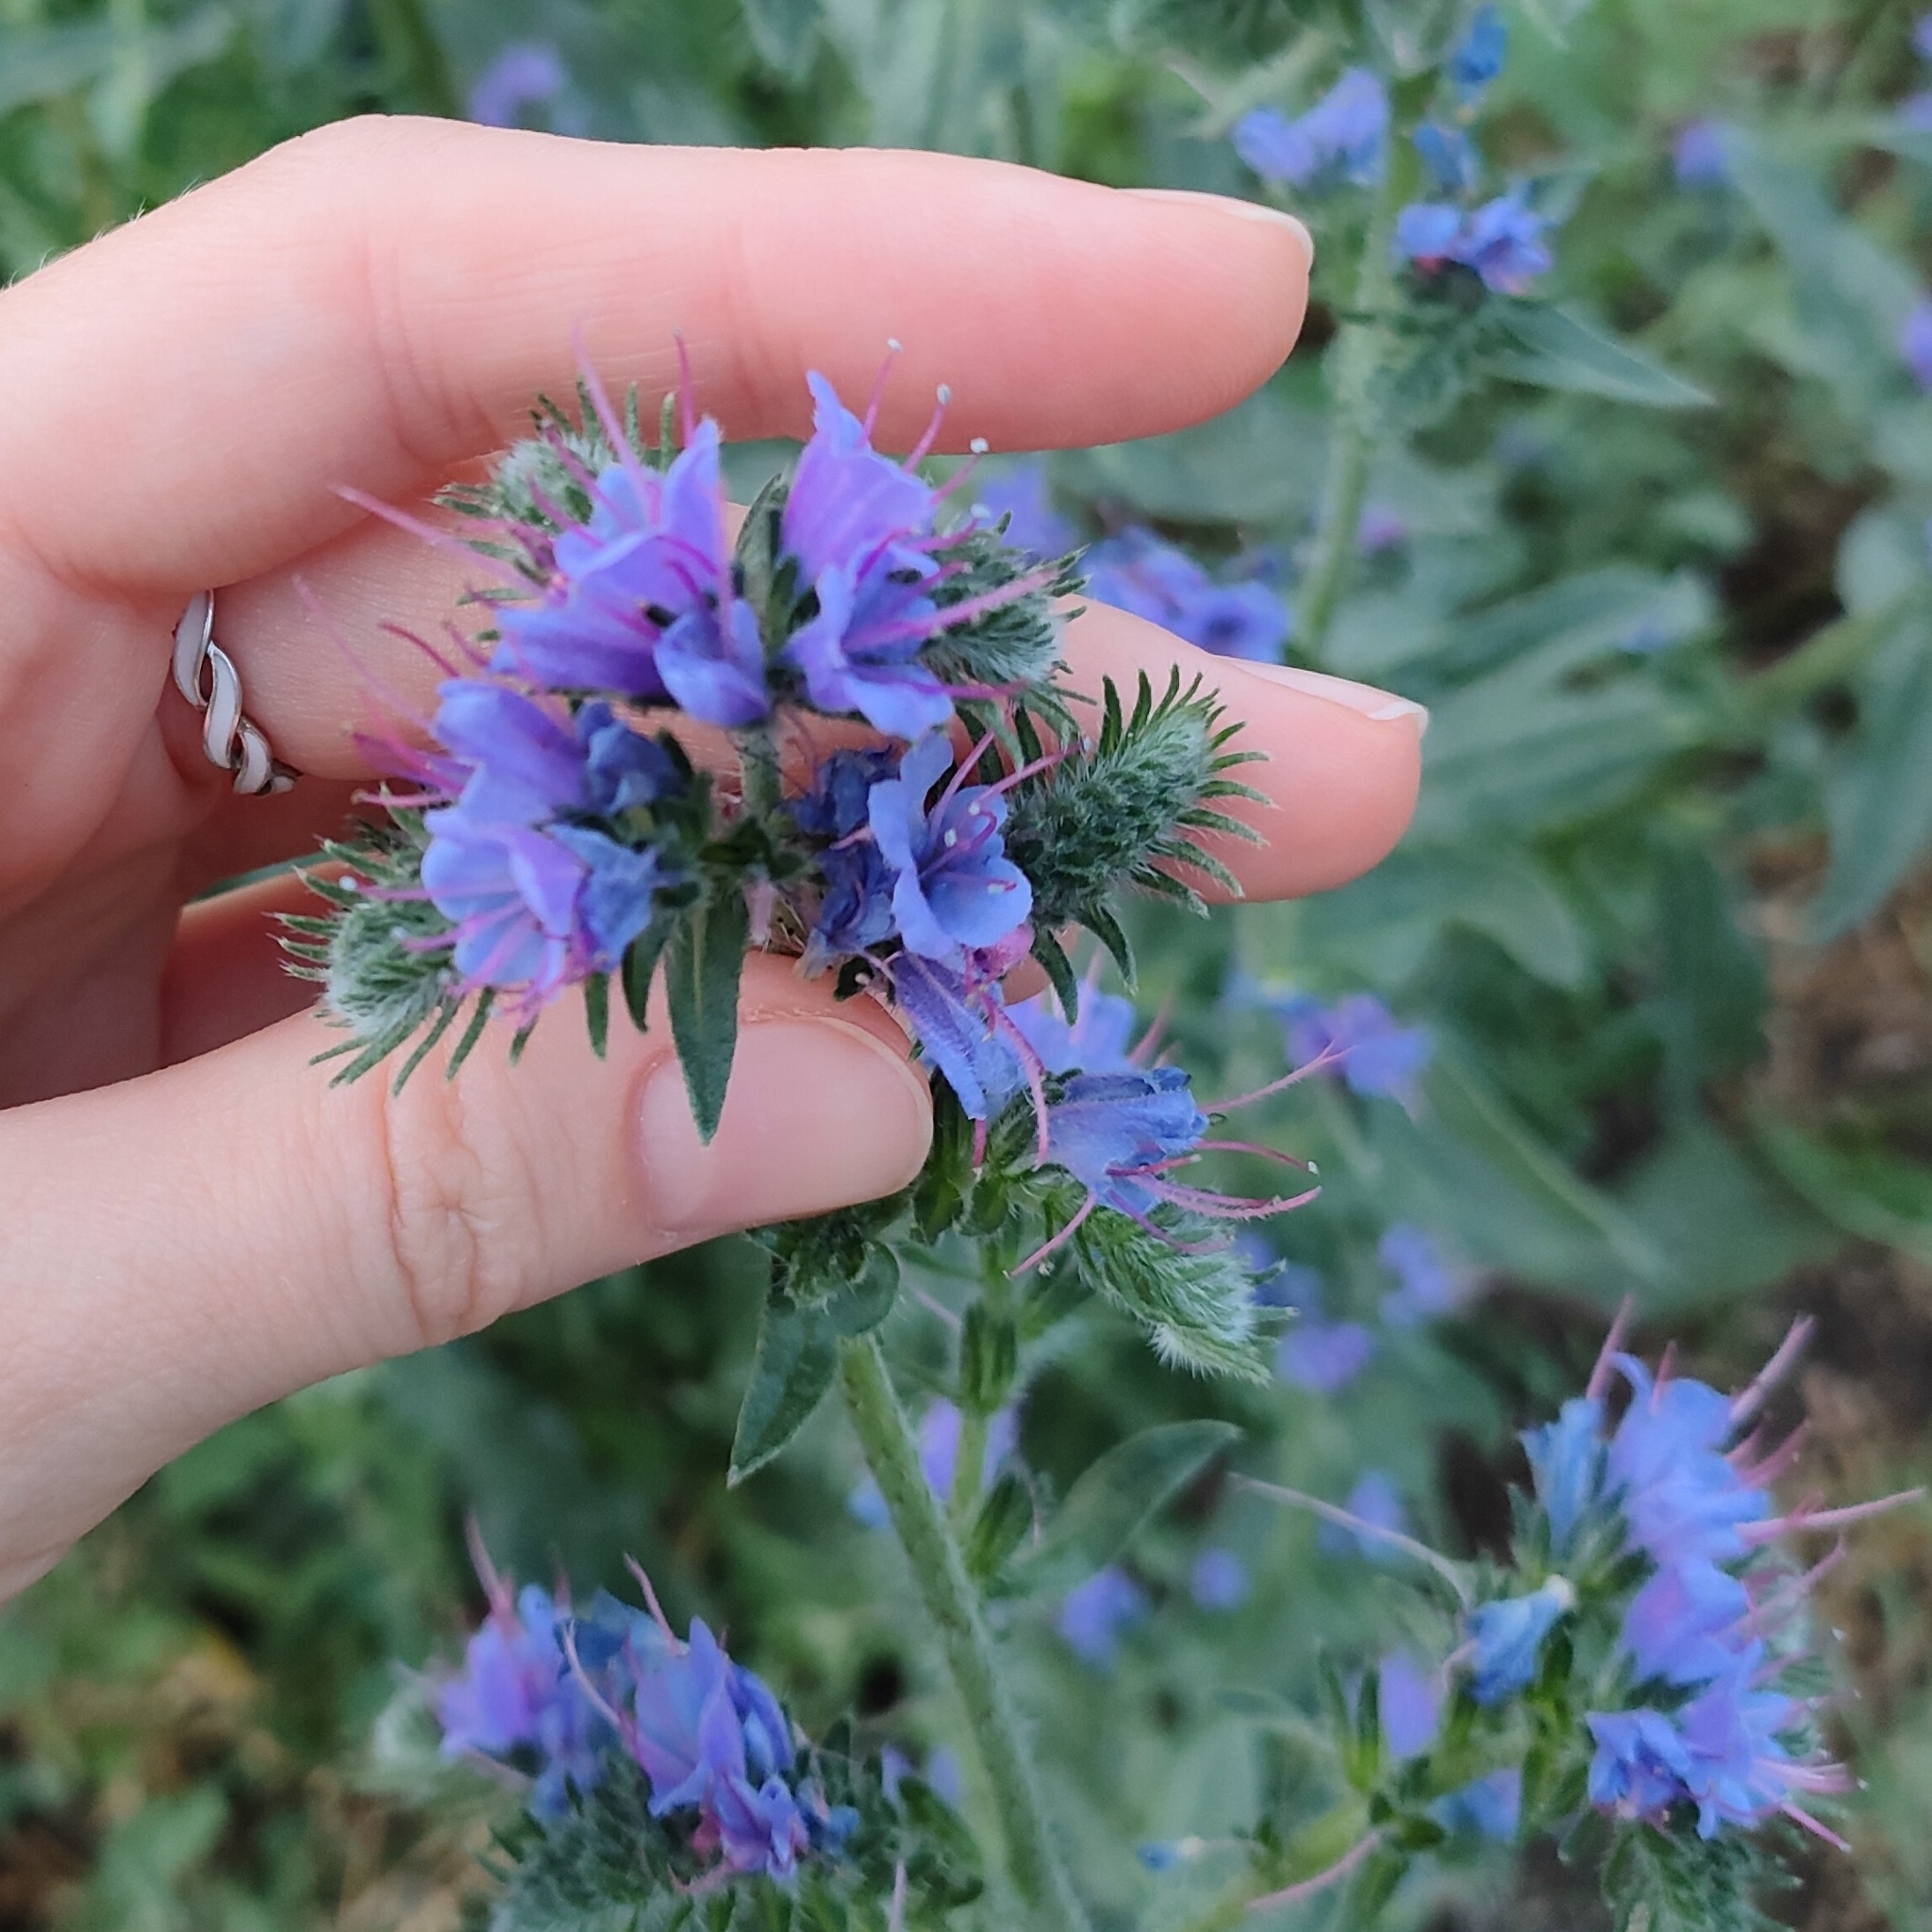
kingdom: Plantae
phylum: Tracheophyta
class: Magnoliopsida
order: Boraginales
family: Boraginaceae
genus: Echium
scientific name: Echium vulgare
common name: Common viper's bugloss
